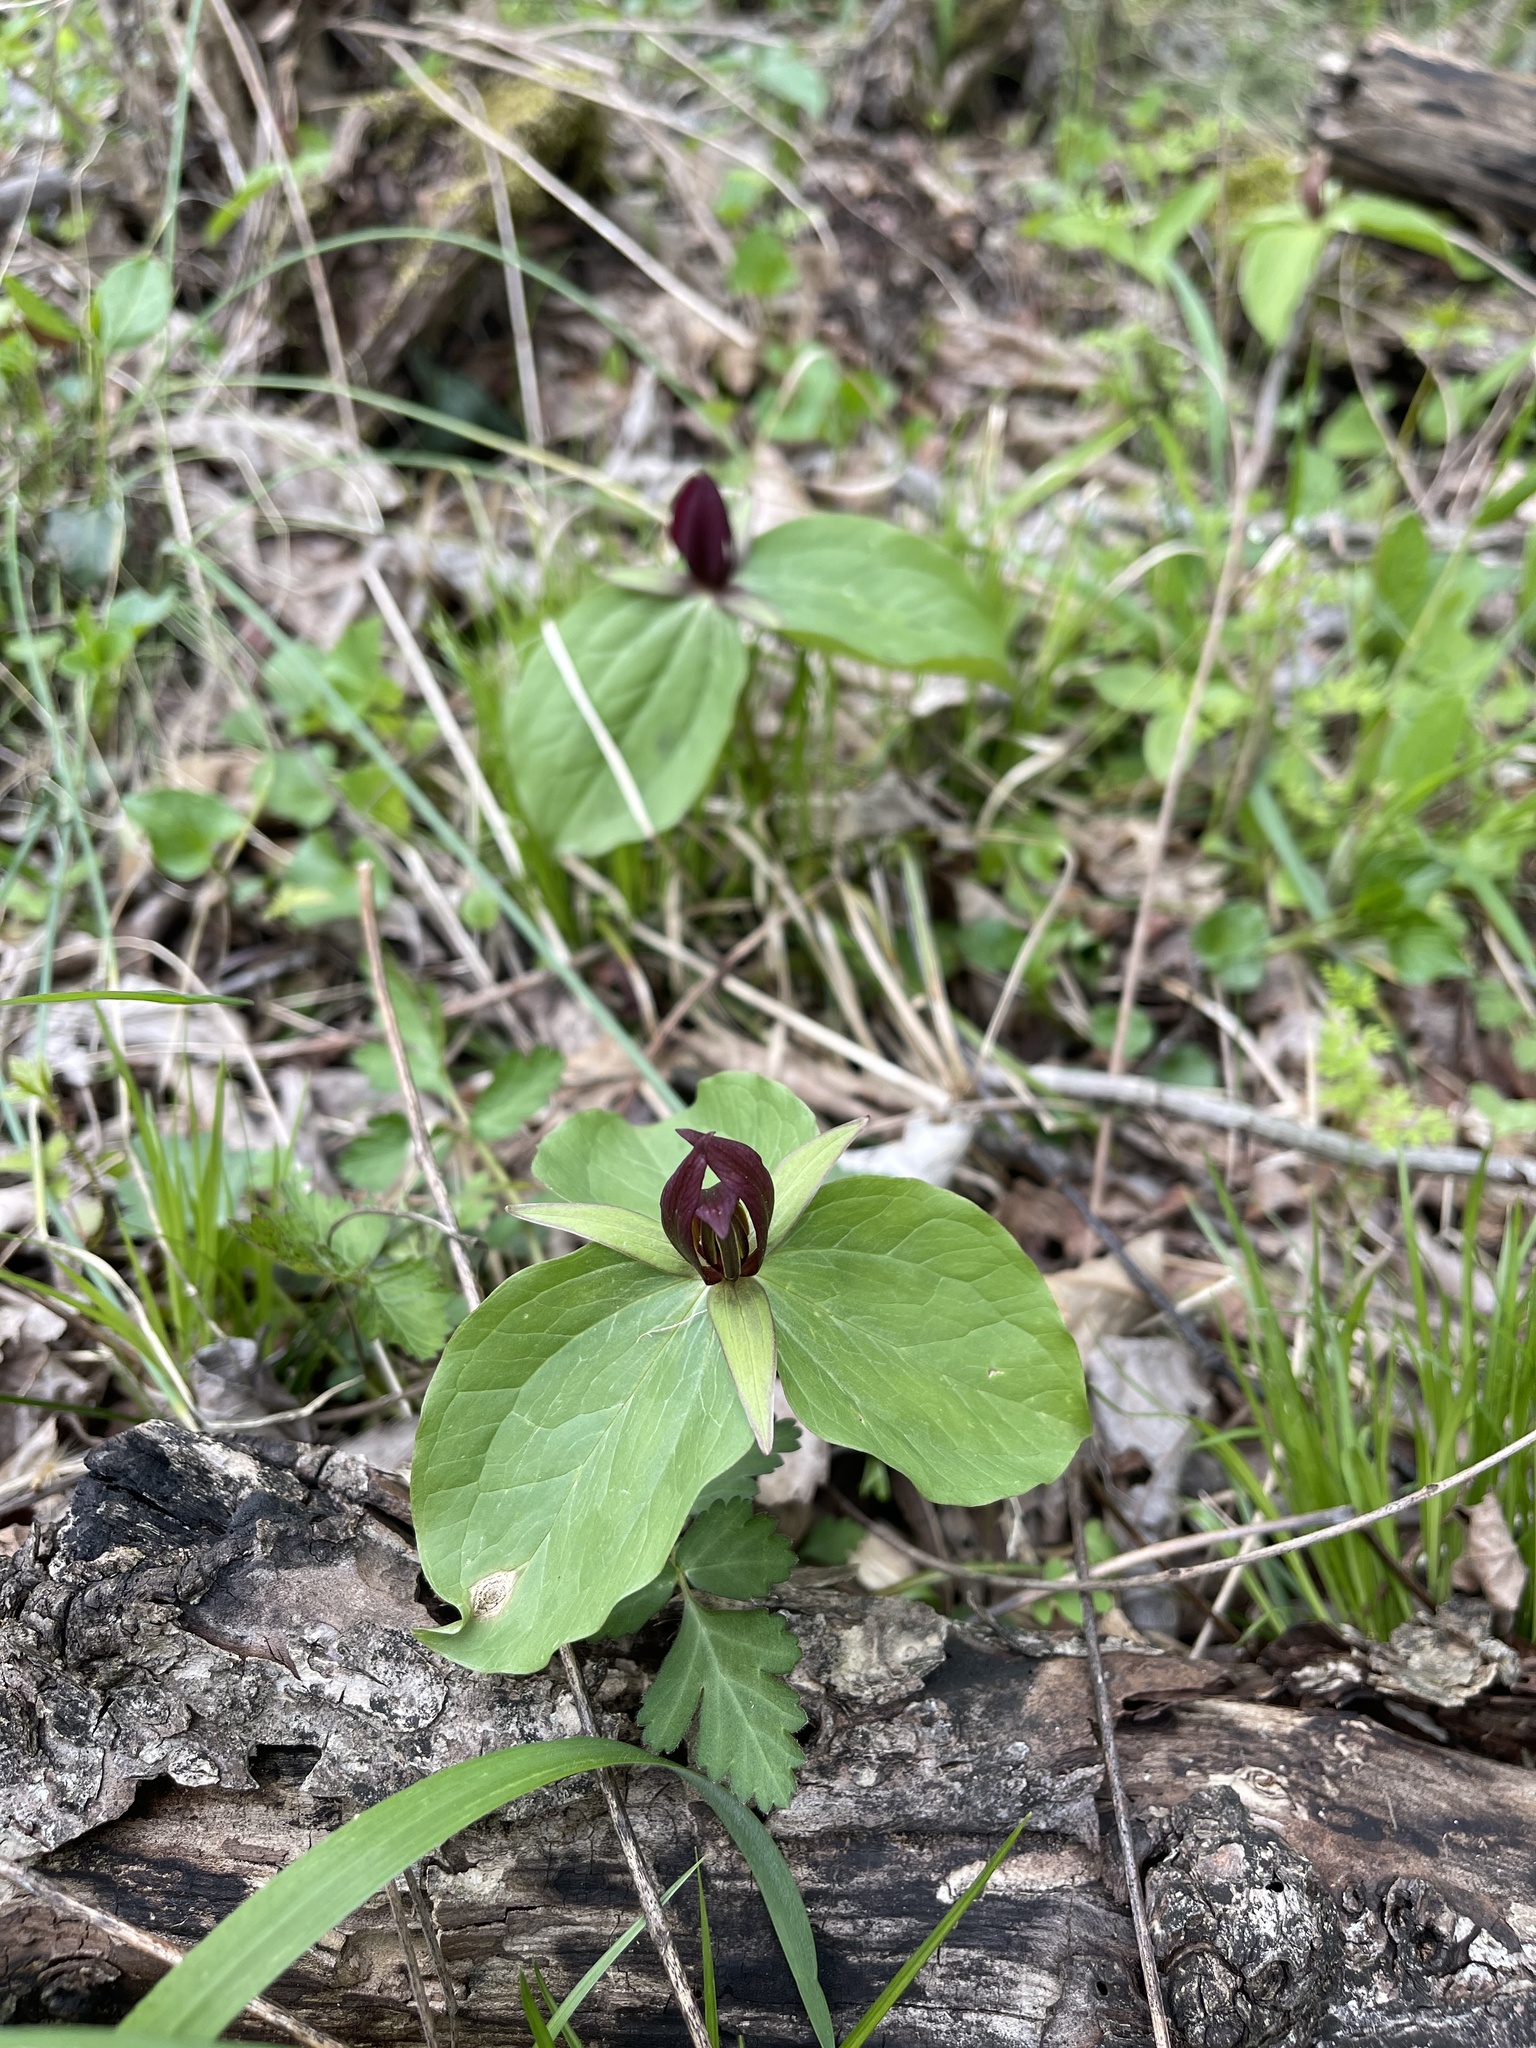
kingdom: Plantae
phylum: Tracheophyta
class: Liliopsida
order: Liliales
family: Melanthiaceae
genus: Trillium
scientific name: Trillium sessile
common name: Sessile trillium
